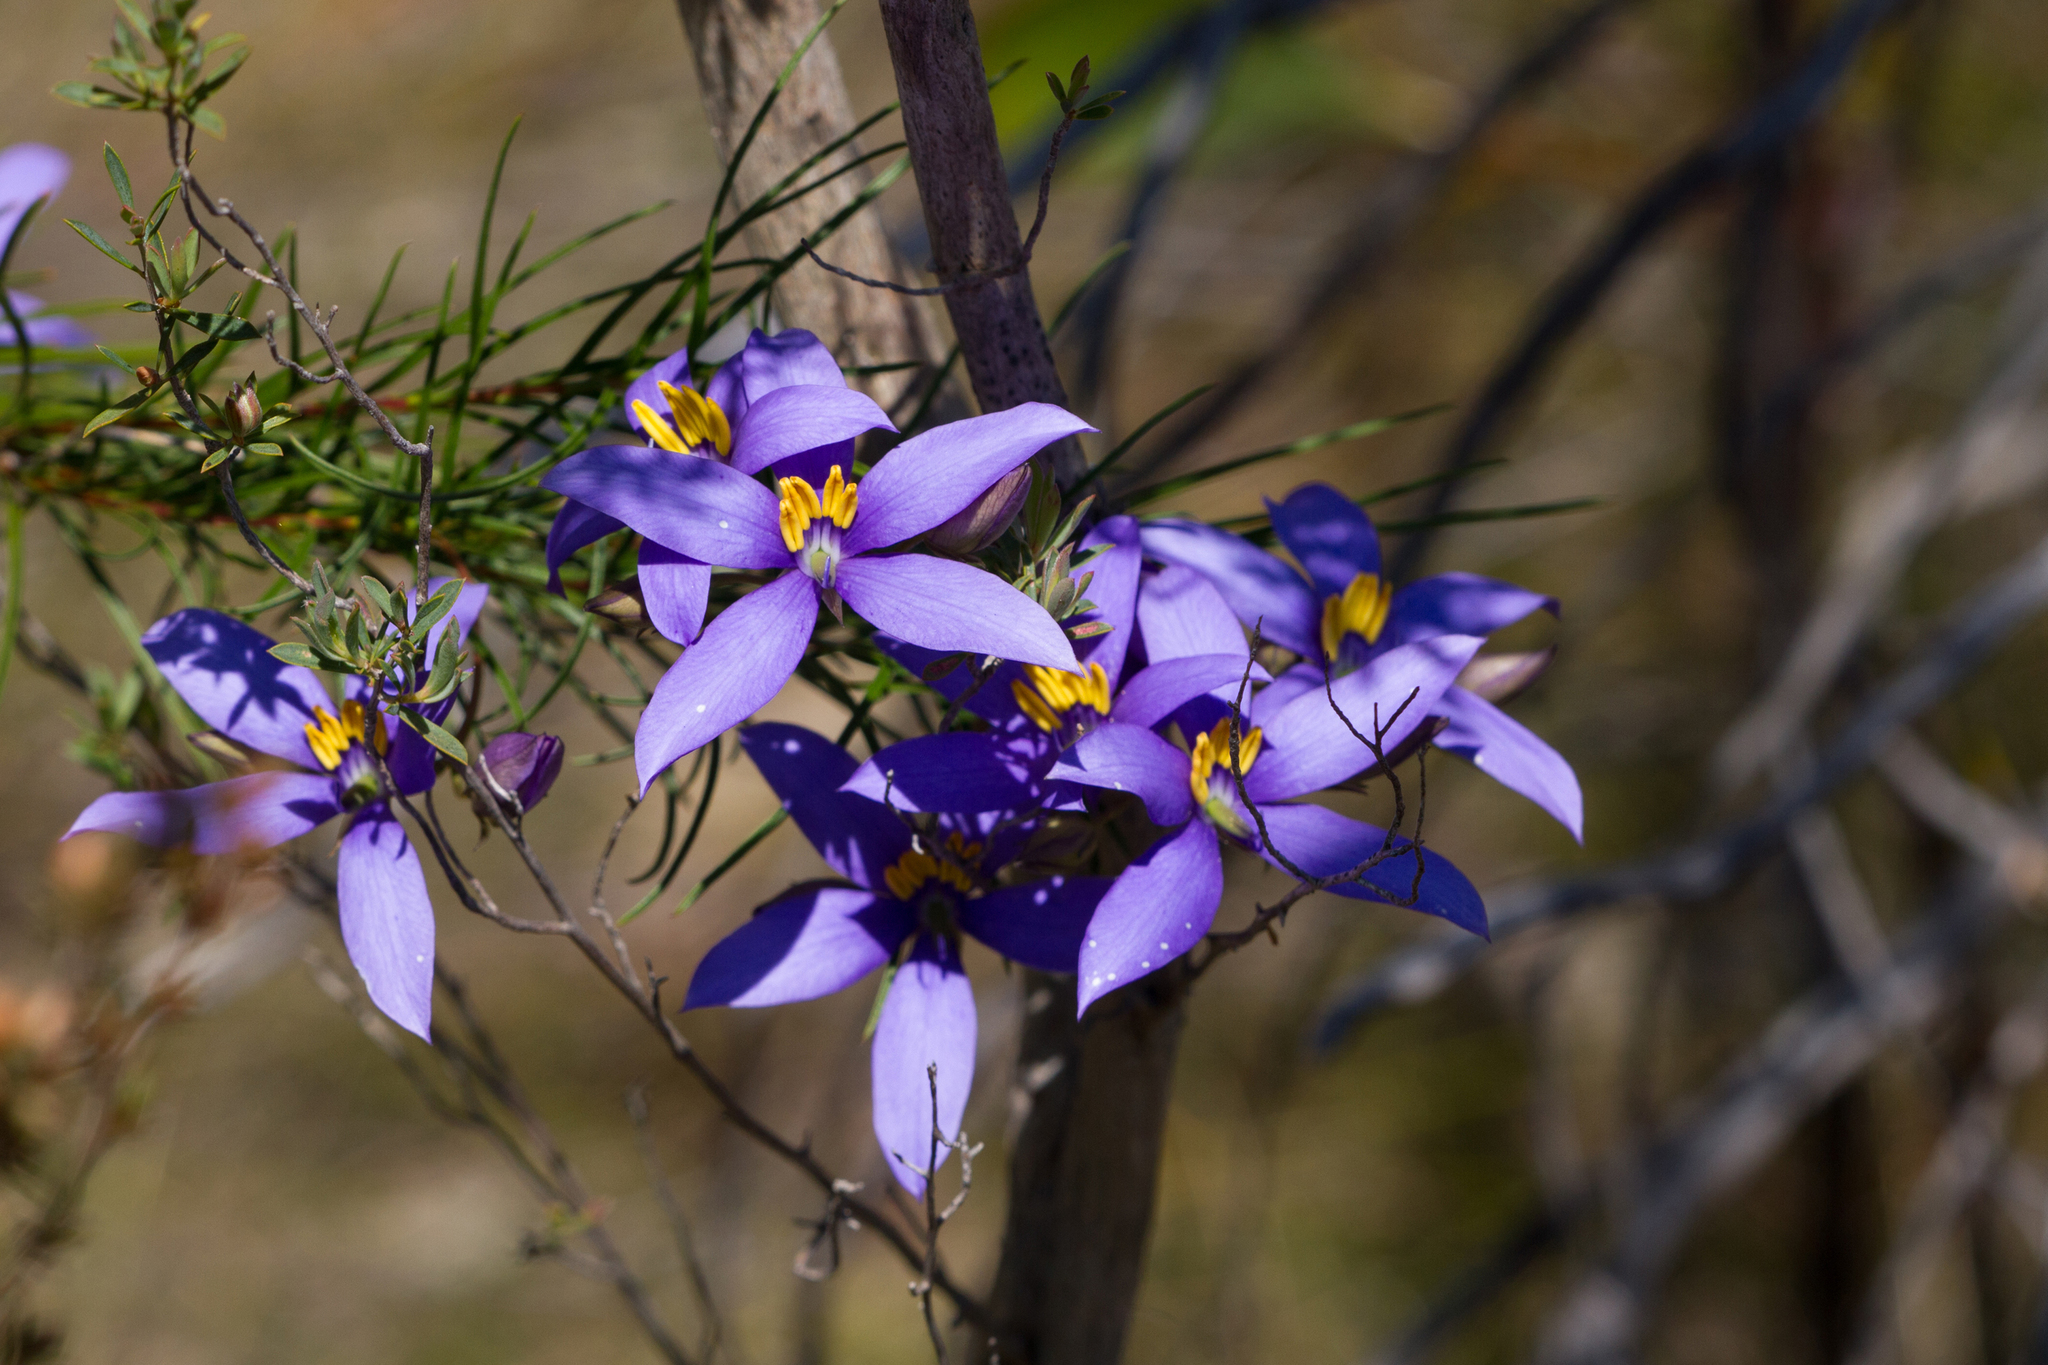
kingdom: Plantae
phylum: Tracheophyta
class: Magnoliopsida
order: Apiales
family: Pittosporaceae
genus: Cheiranthera
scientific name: Cheiranthera alternifolia
